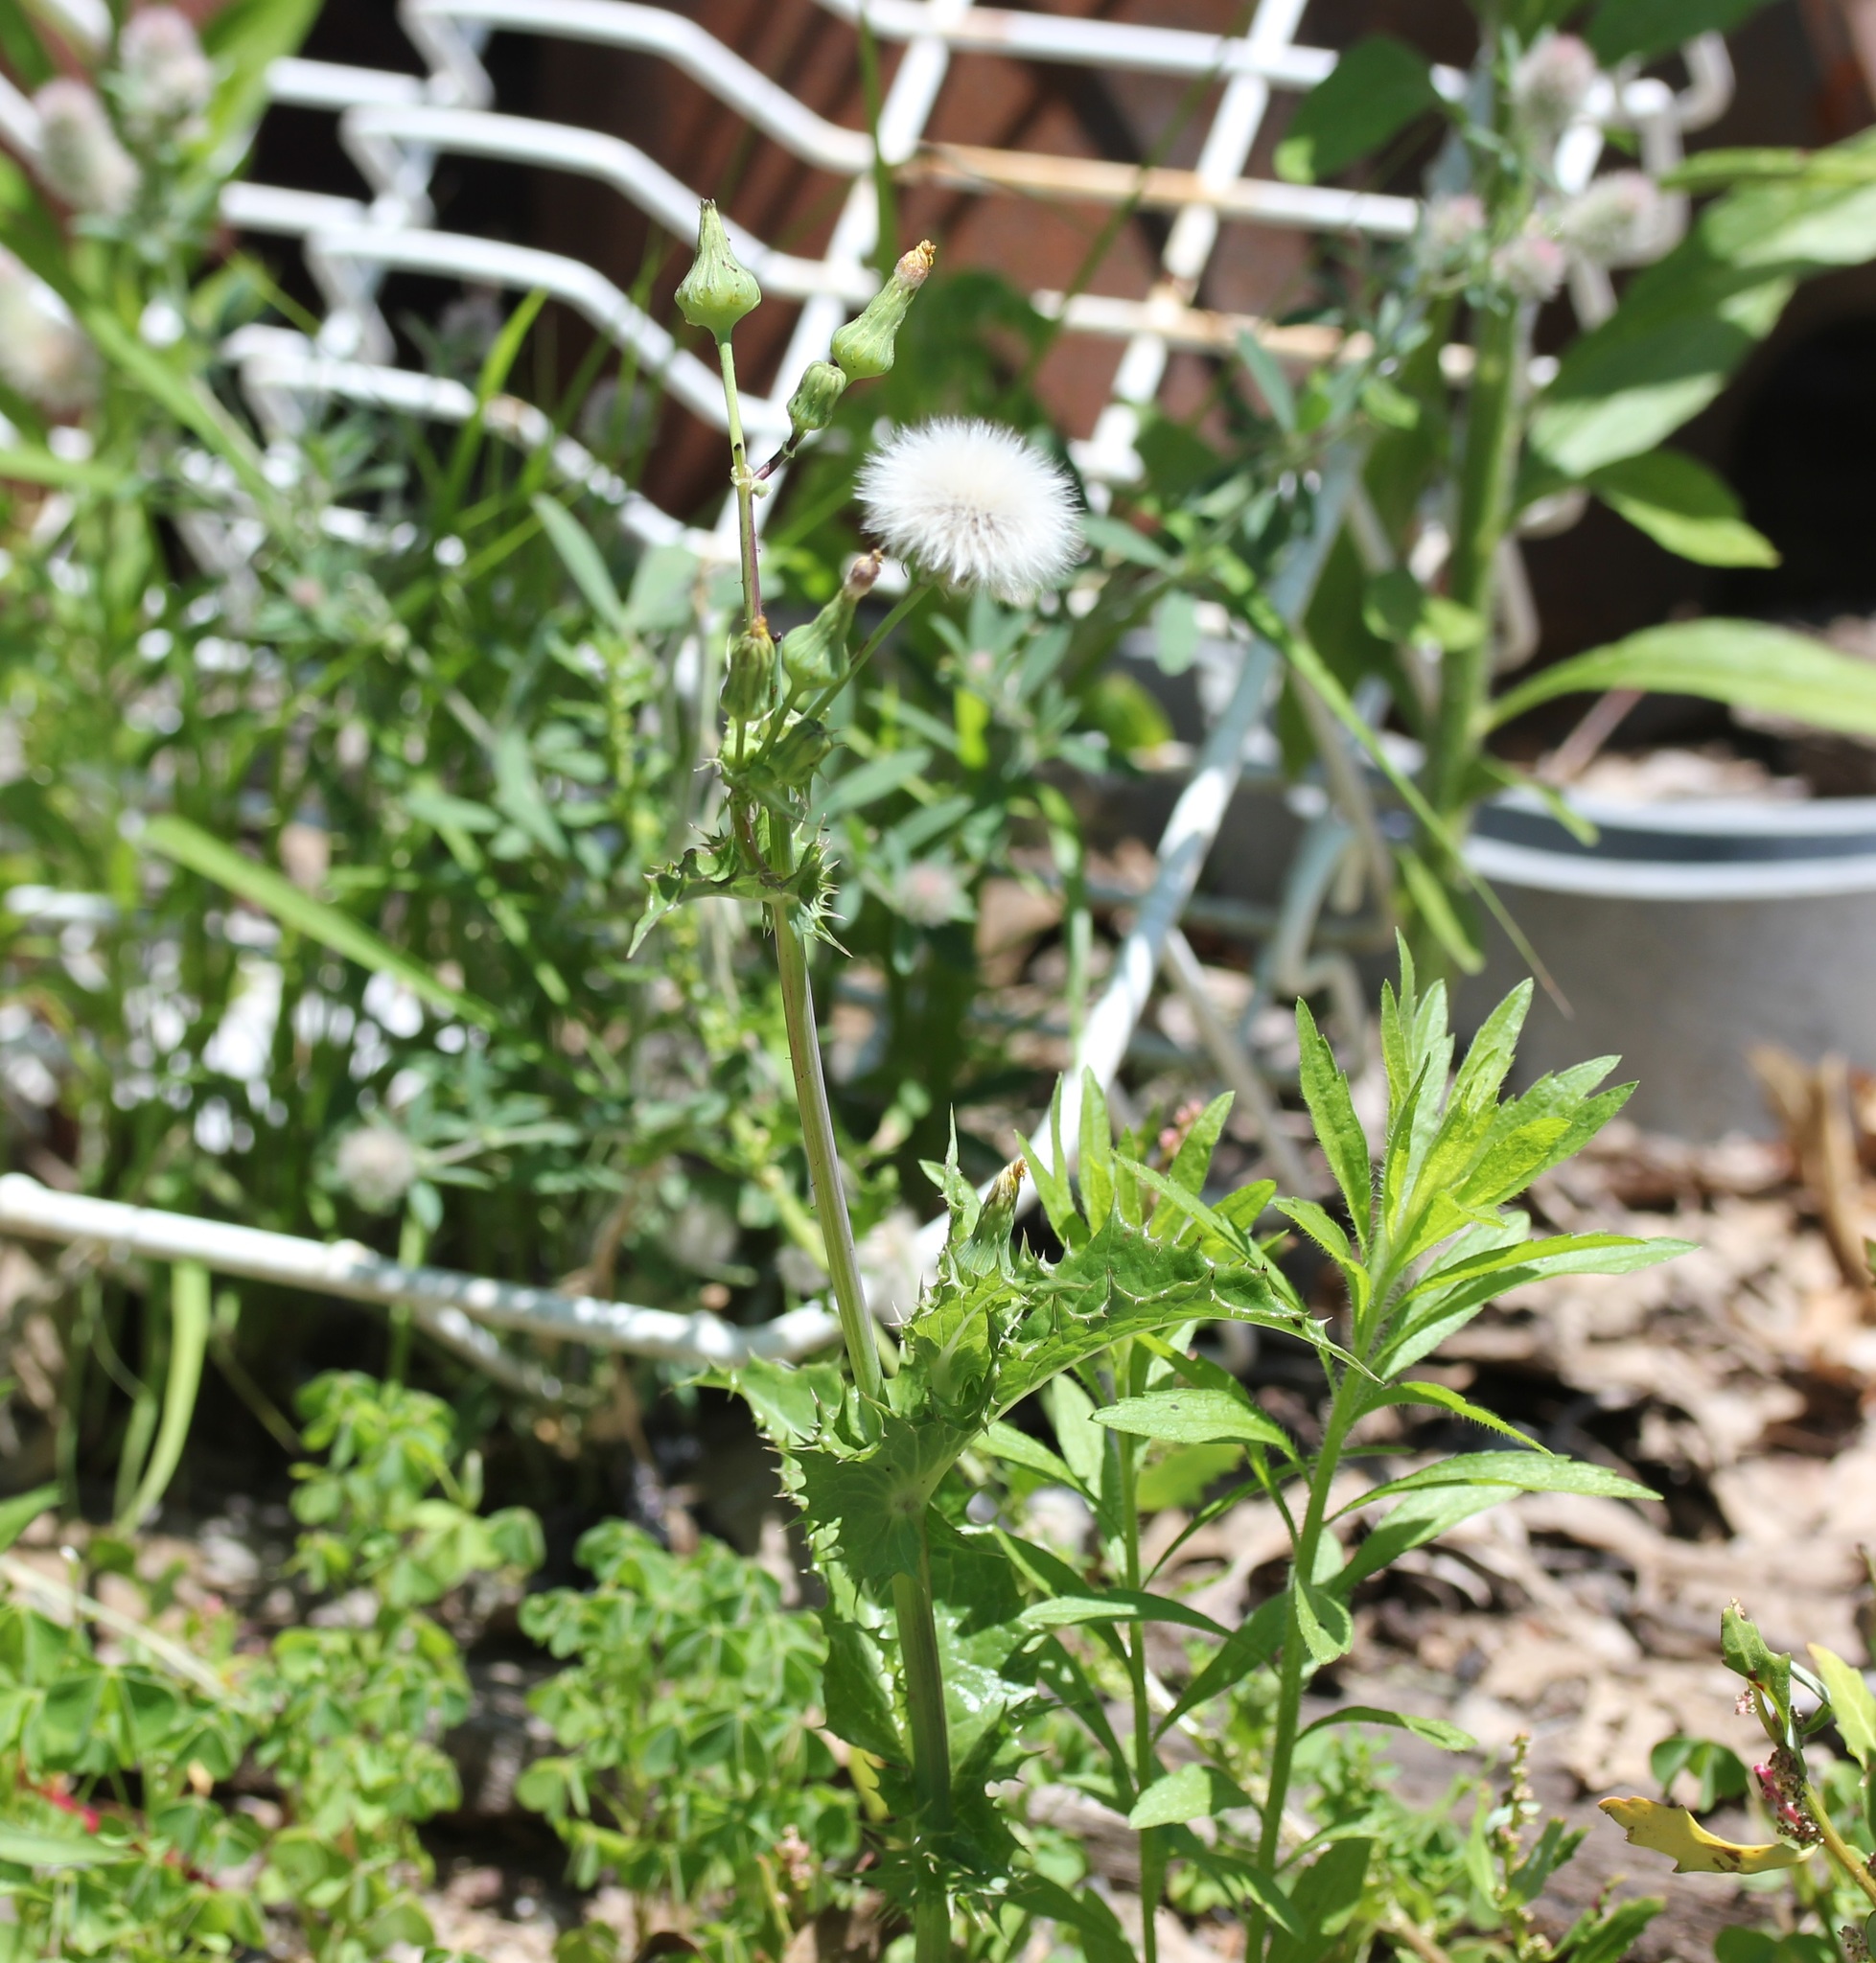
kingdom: Plantae
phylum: Tracheophyta
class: Magnoliopsida
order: Asterales
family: Asteraceae
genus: Sonchus
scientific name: Sonchus asper
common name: Prickly sow-thistle
